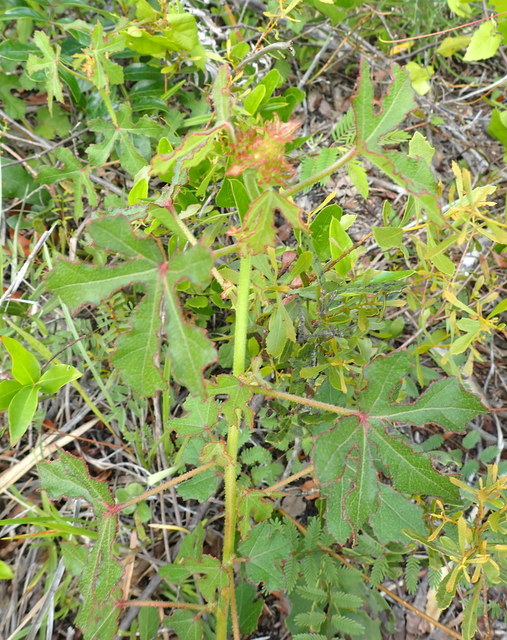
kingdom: Plantae
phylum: Tracheophyta
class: Magnoliopsida
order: Malvales
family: Malvaceae
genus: Hibiscus
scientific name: Hibiscus aculeatus
